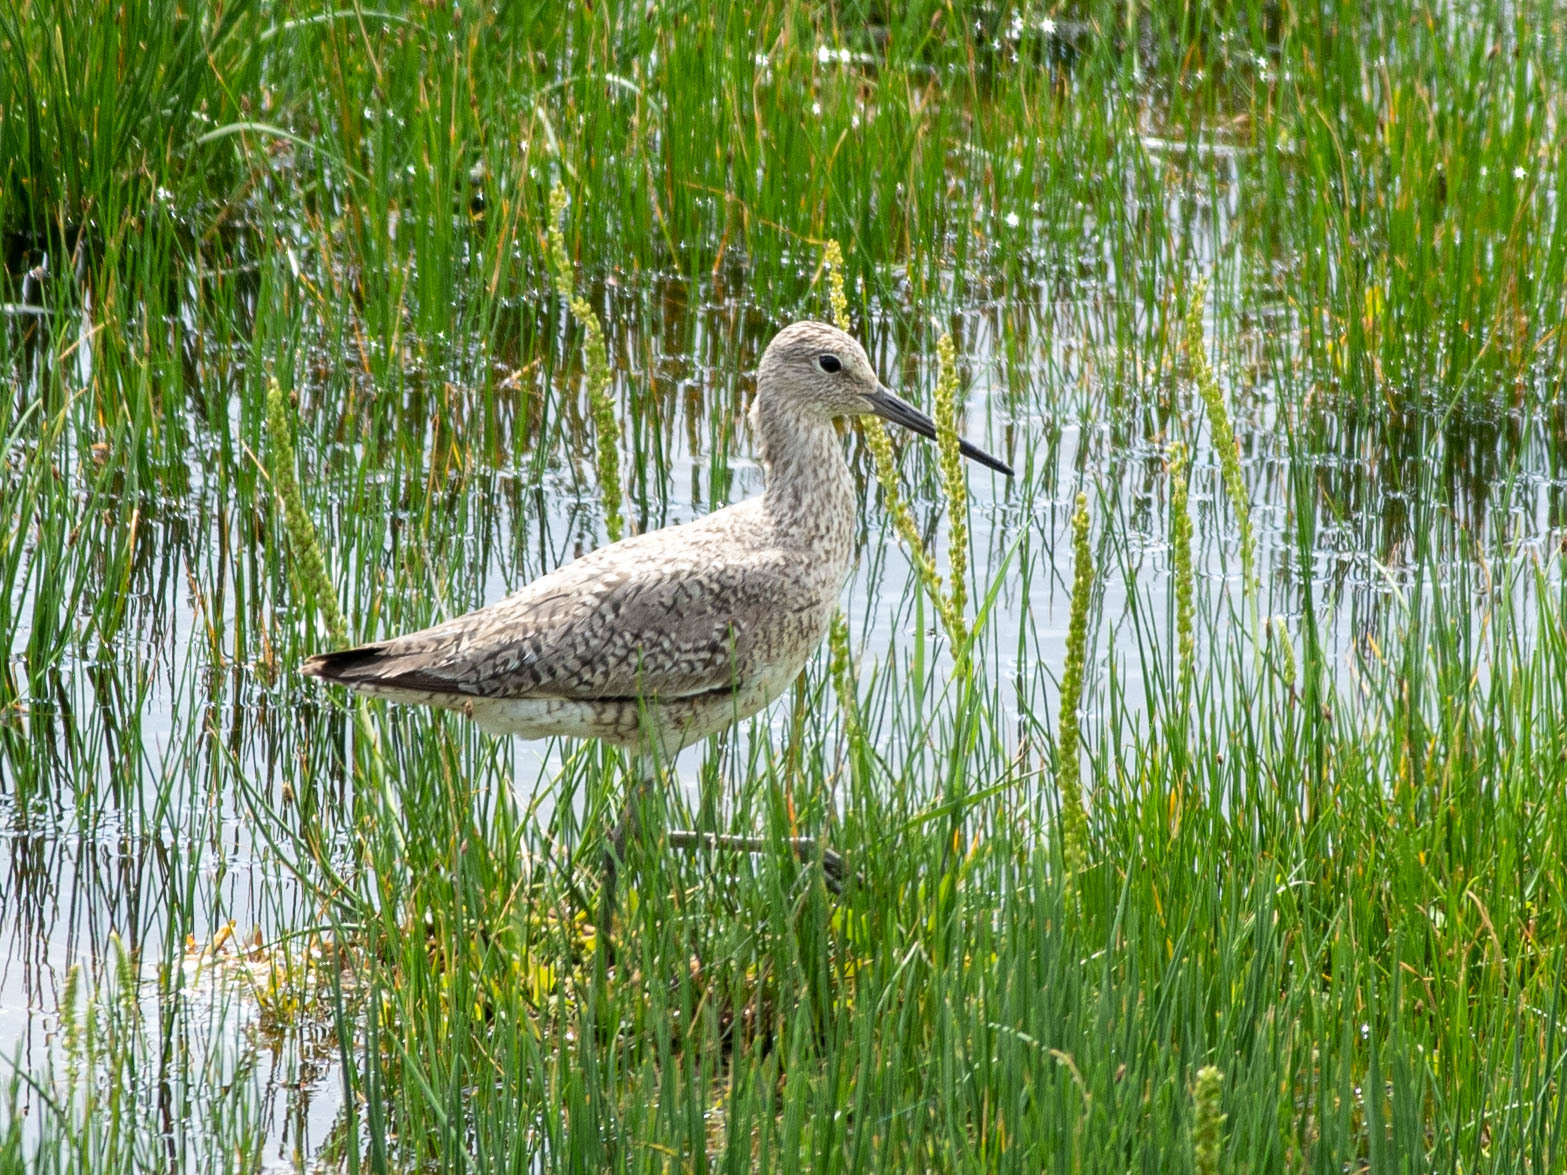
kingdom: Animalia
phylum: Chordata
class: Aves
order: Charadriiformes
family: Scolopacidae
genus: Tringa
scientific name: Tringa semipalmata
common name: Willet
